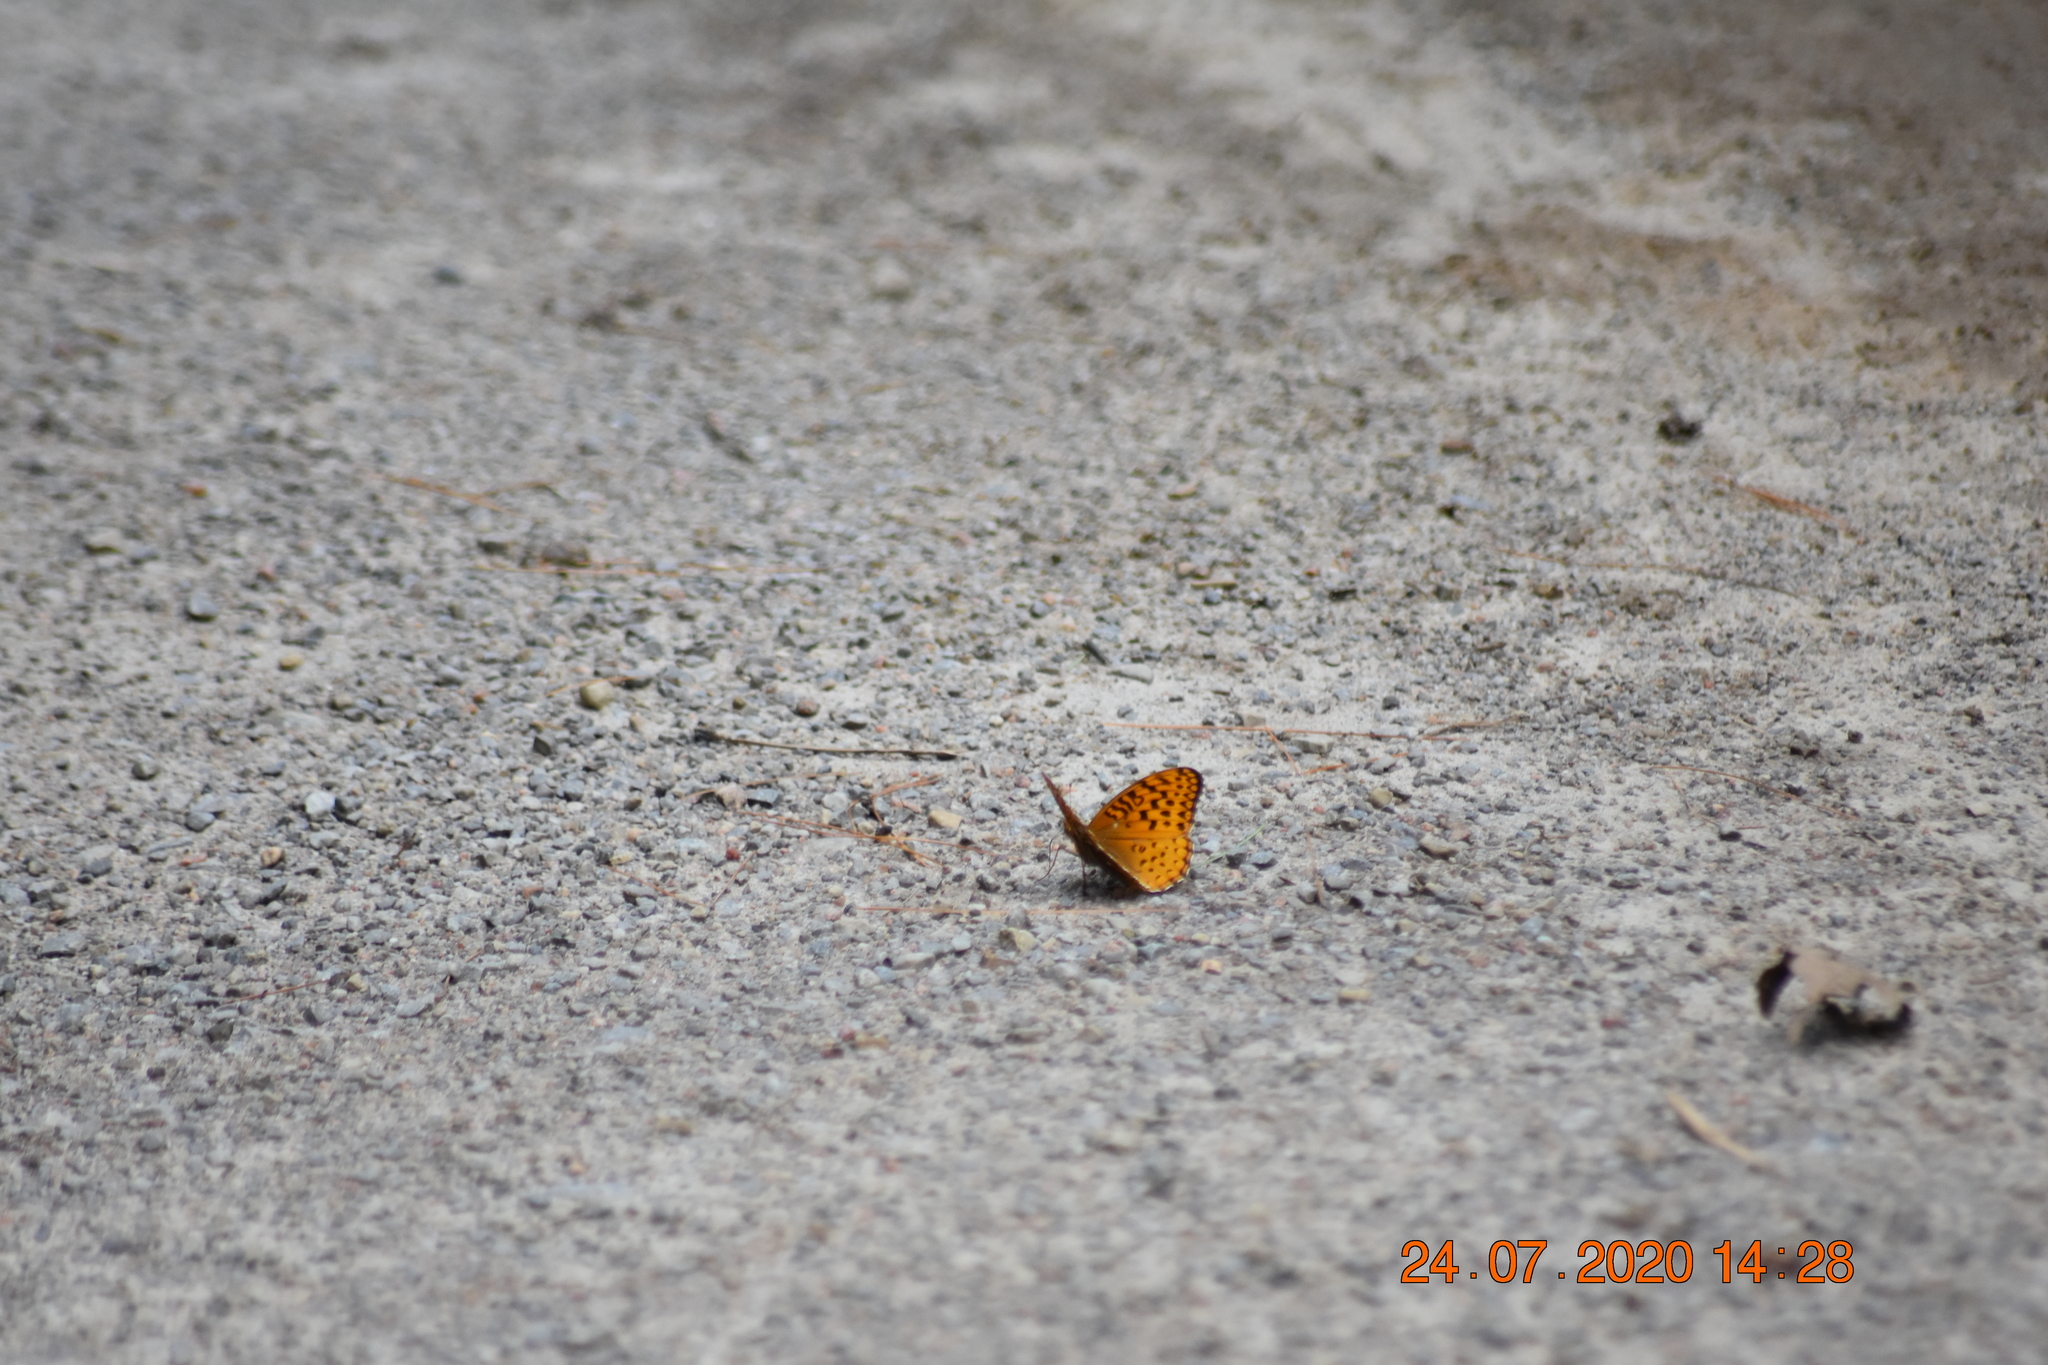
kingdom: Animalia
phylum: Arthropoda
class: Insecta
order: Lepidoptera
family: Nymphalidae
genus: Speyeria
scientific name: Speyeria aphrodite
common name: Aphrodite friitllary
